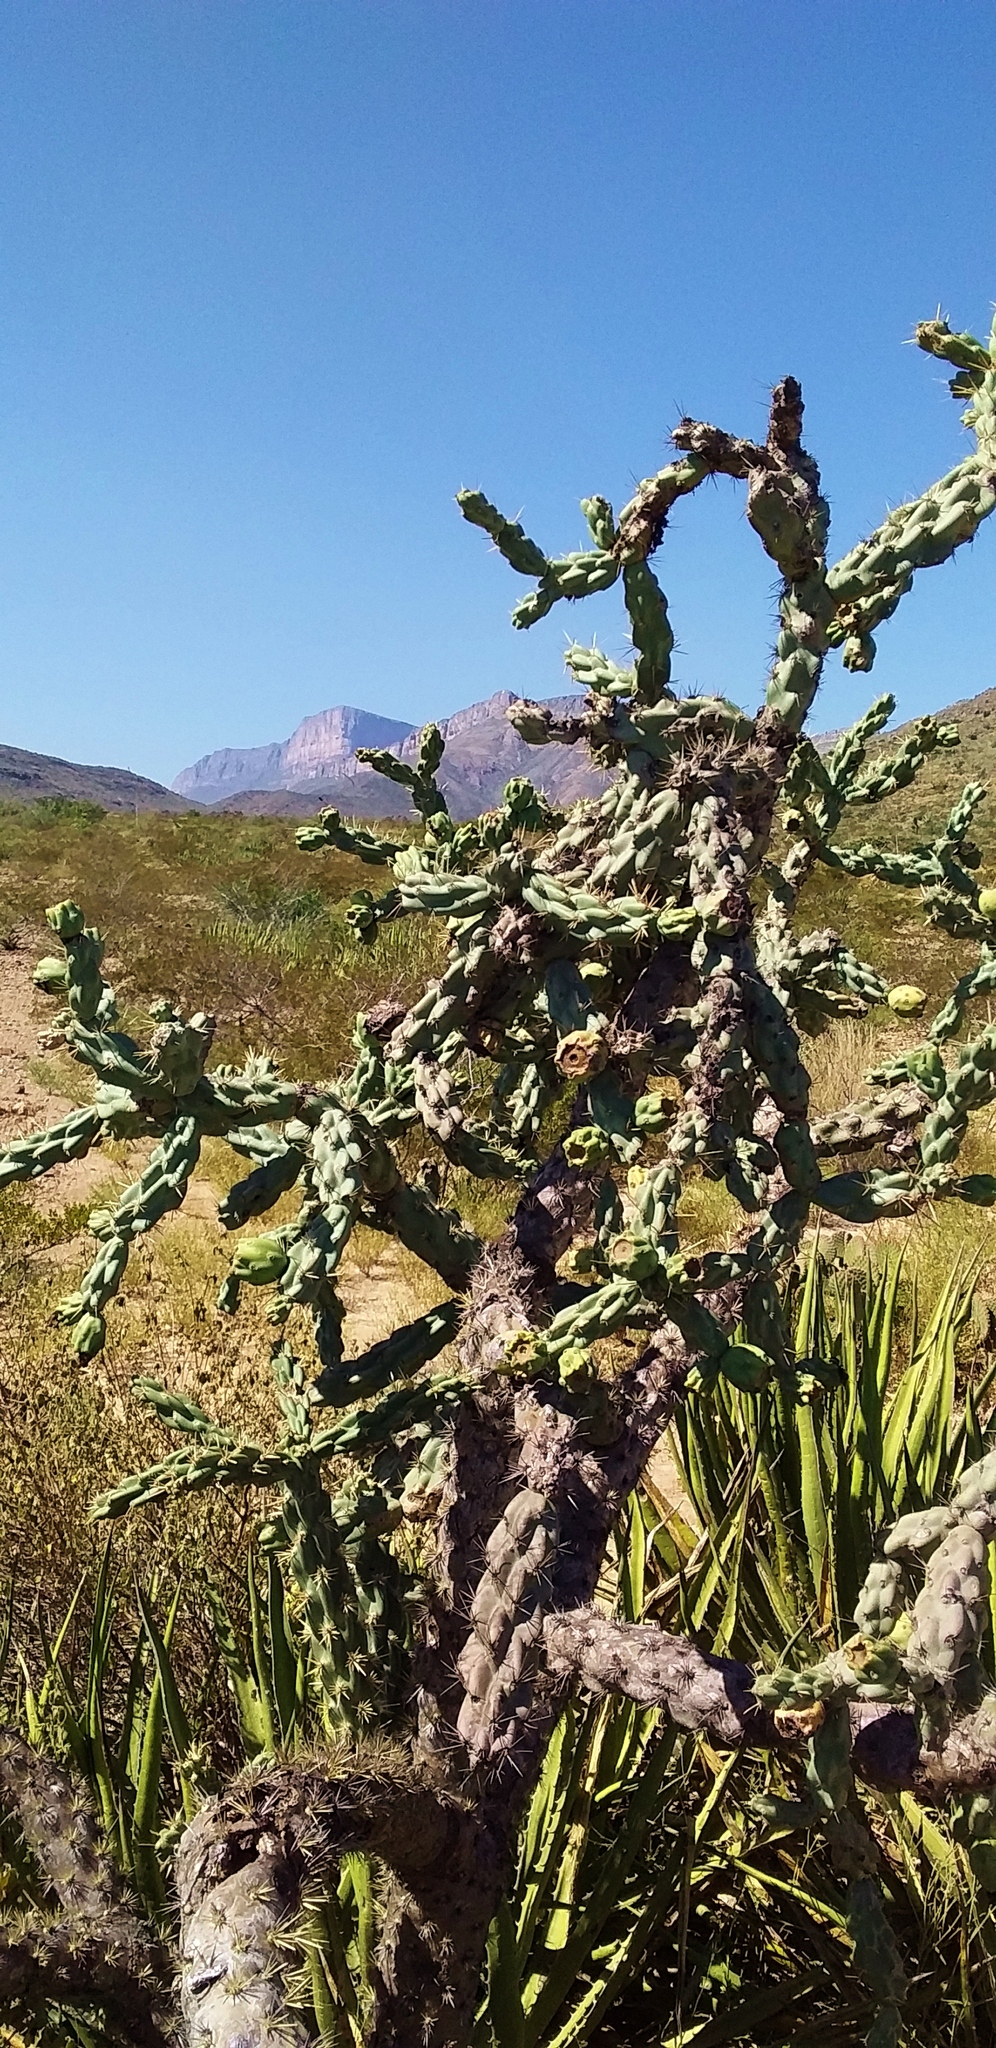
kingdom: Plantae
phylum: Tracheophyta
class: Magnoliopsida
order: Caryophyllales
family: Cactaceae
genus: Cylindropuntia
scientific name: Cylindropuntia imbricata
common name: Candelabrum cactus
